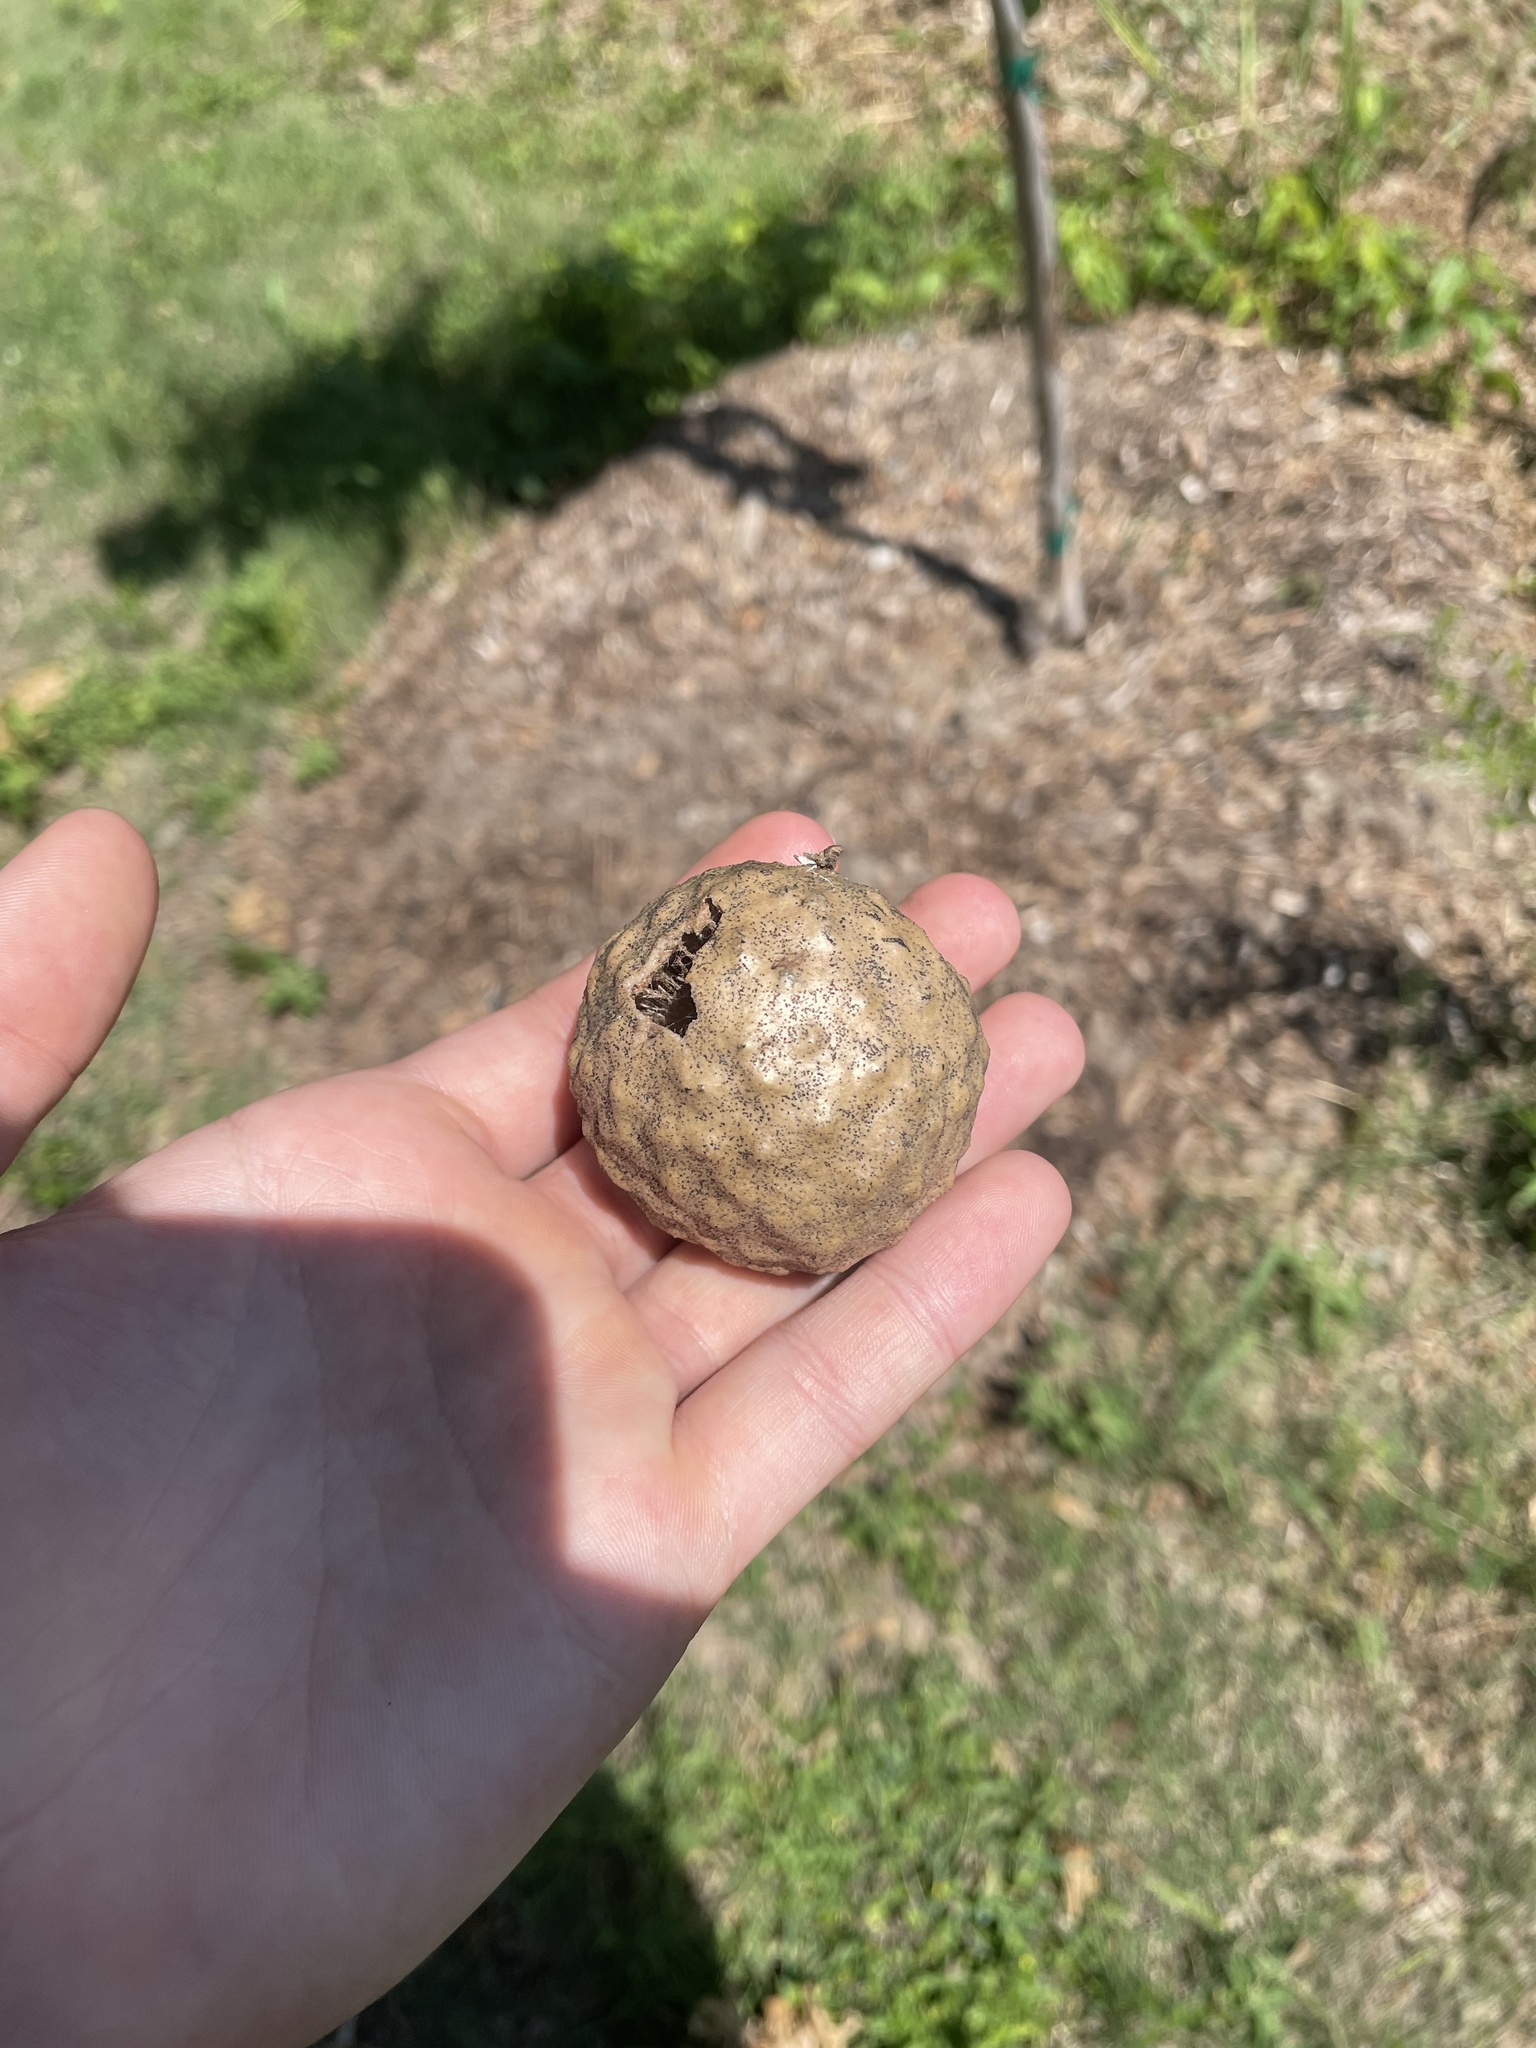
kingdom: Animalia
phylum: Arthropoda
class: Insecta
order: Hymenoptera
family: Cynipidae
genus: Amphibolips
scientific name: Amphibolips
